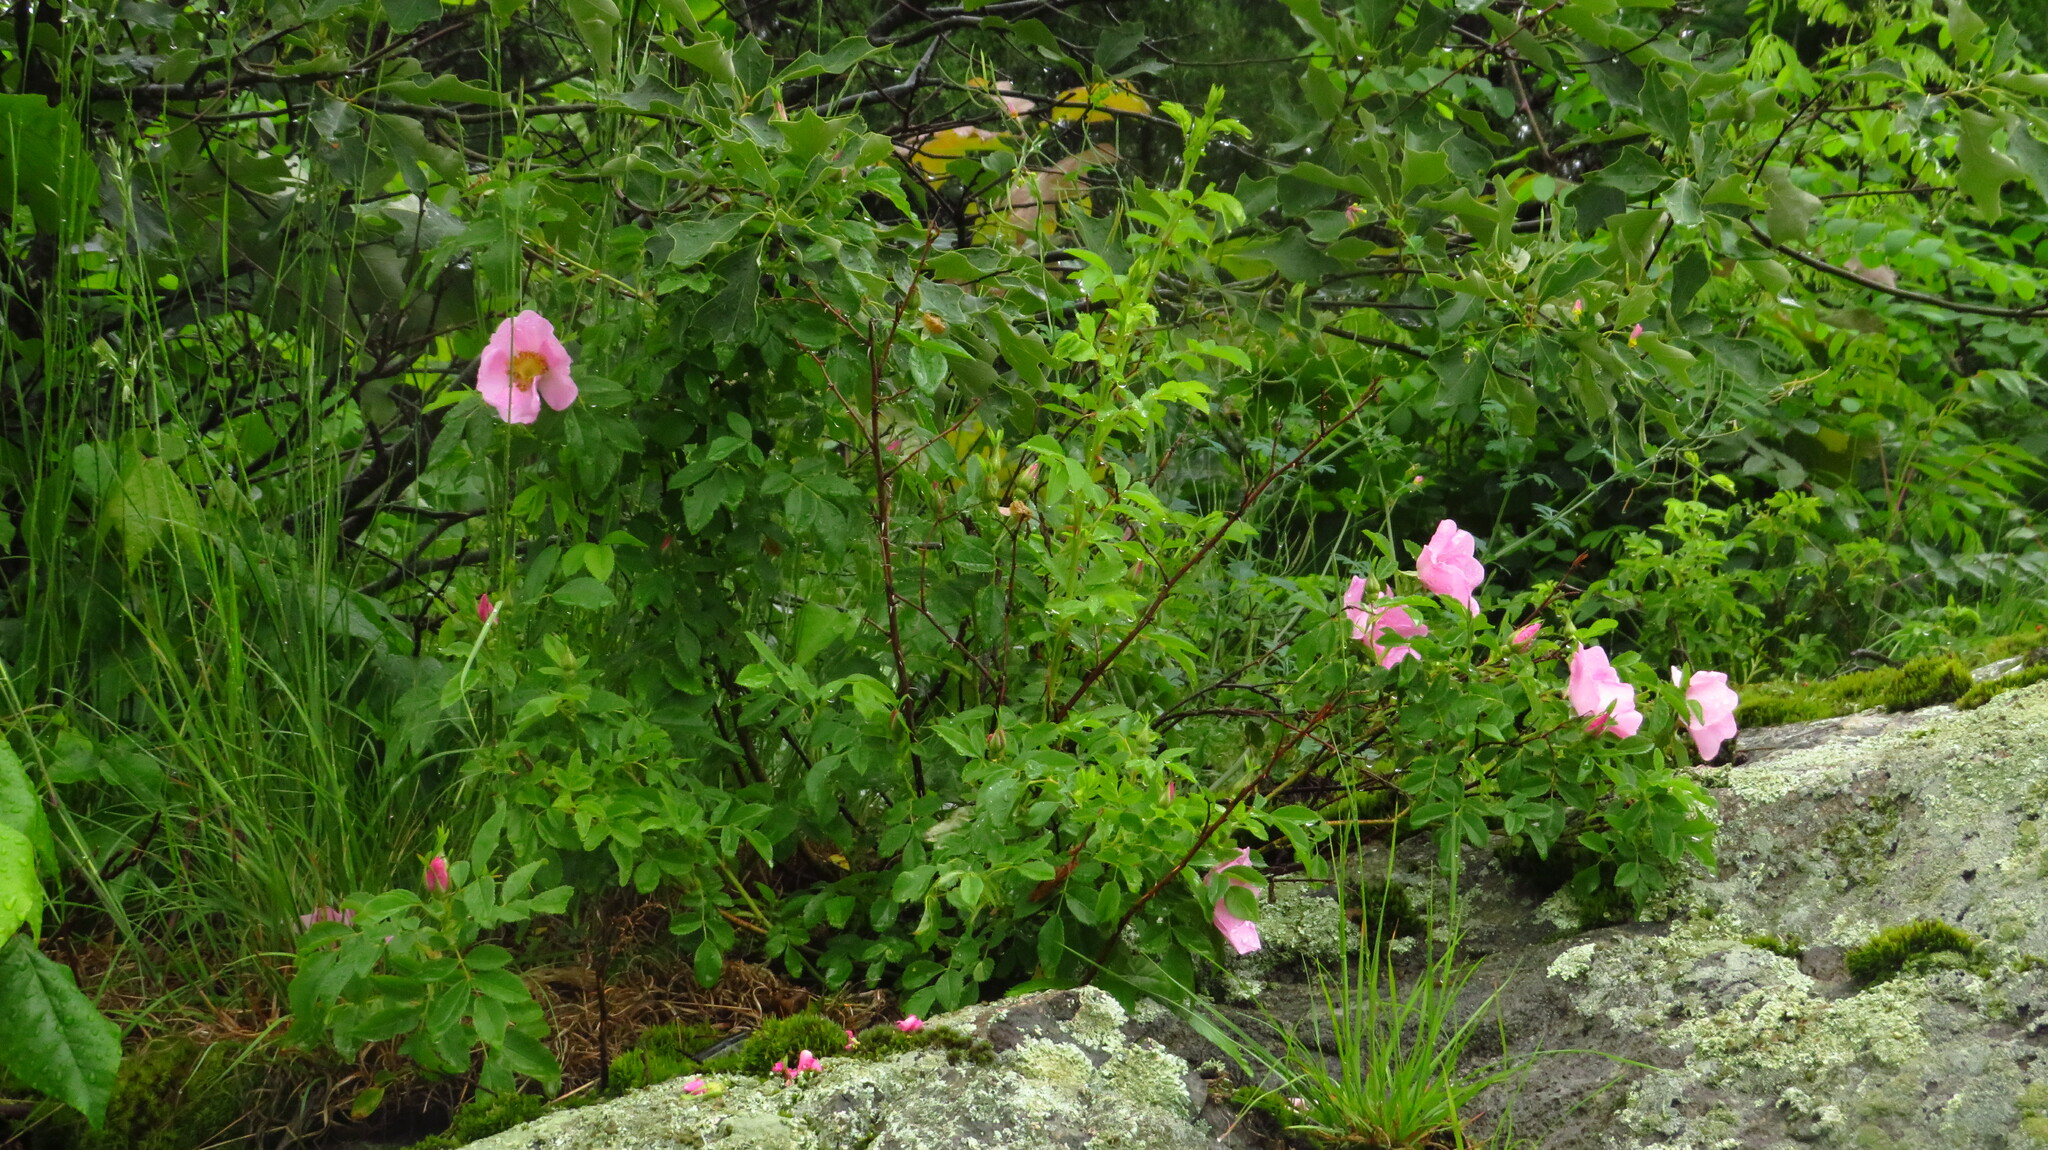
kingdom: Plantae
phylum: Tracheophyta
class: Magnoliopsida
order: Rosales
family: Rosaceae
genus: Rosa
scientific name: Rosa carolina
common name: Pasture rose
